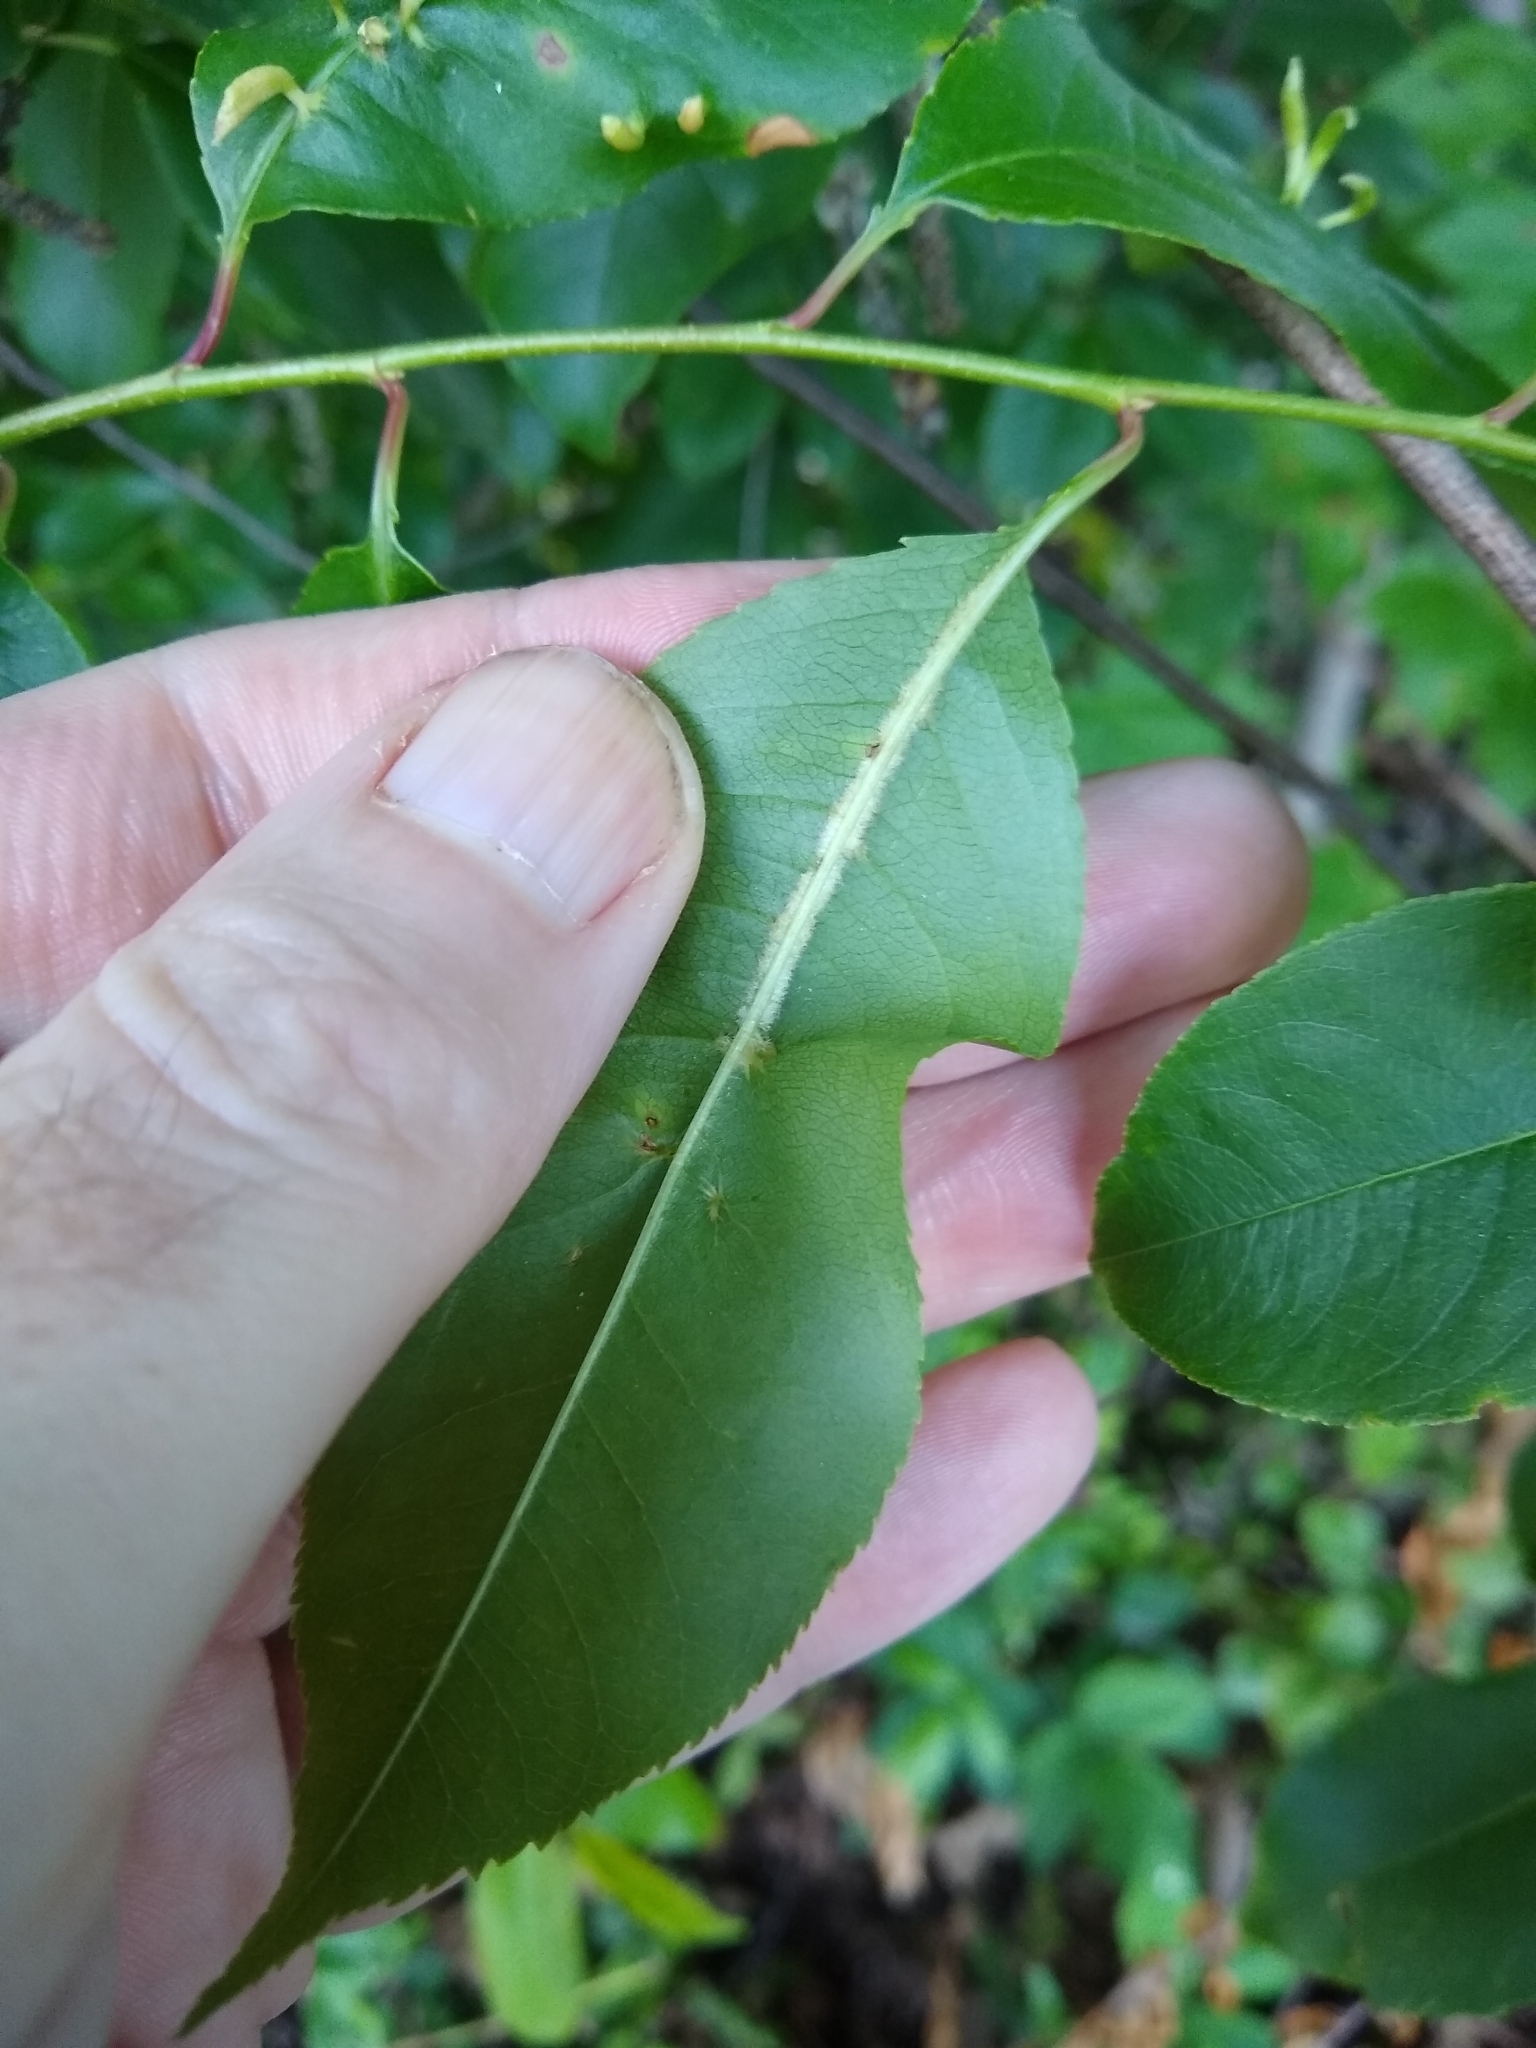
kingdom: Animalia
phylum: Arthropoda
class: Arachnida
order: Trombidiformes
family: Eriophyidae
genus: Eriophyes
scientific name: Eriophyes
